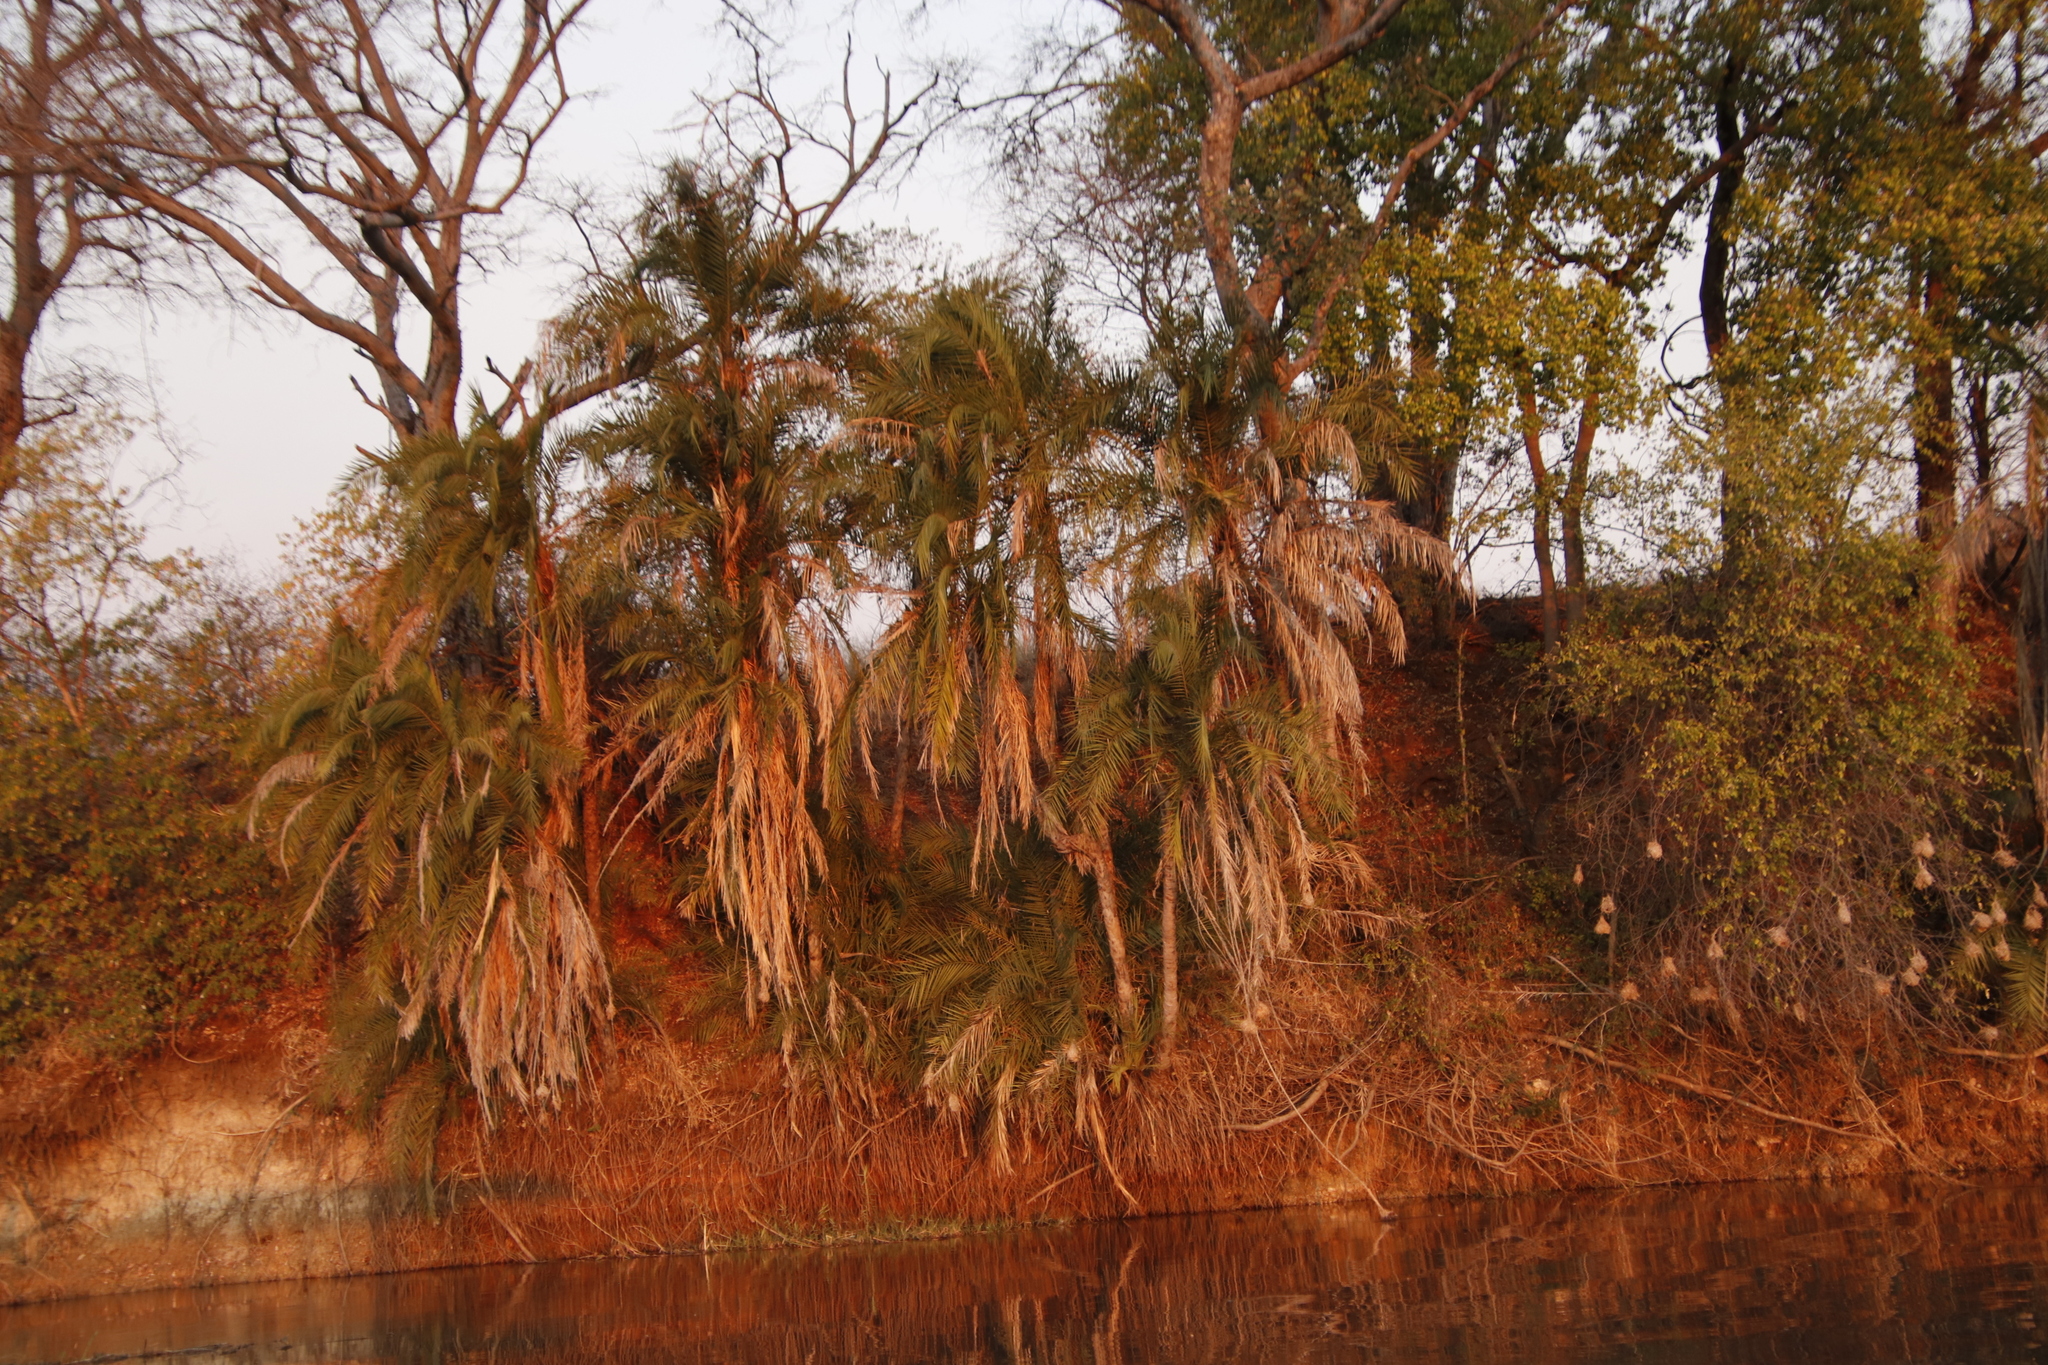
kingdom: Plantae
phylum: Tracheophyta
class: Liliopsida
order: Arecales
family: Arecaceae
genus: Phoenix
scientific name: Phoenix reclinata
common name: Senegal date palm
